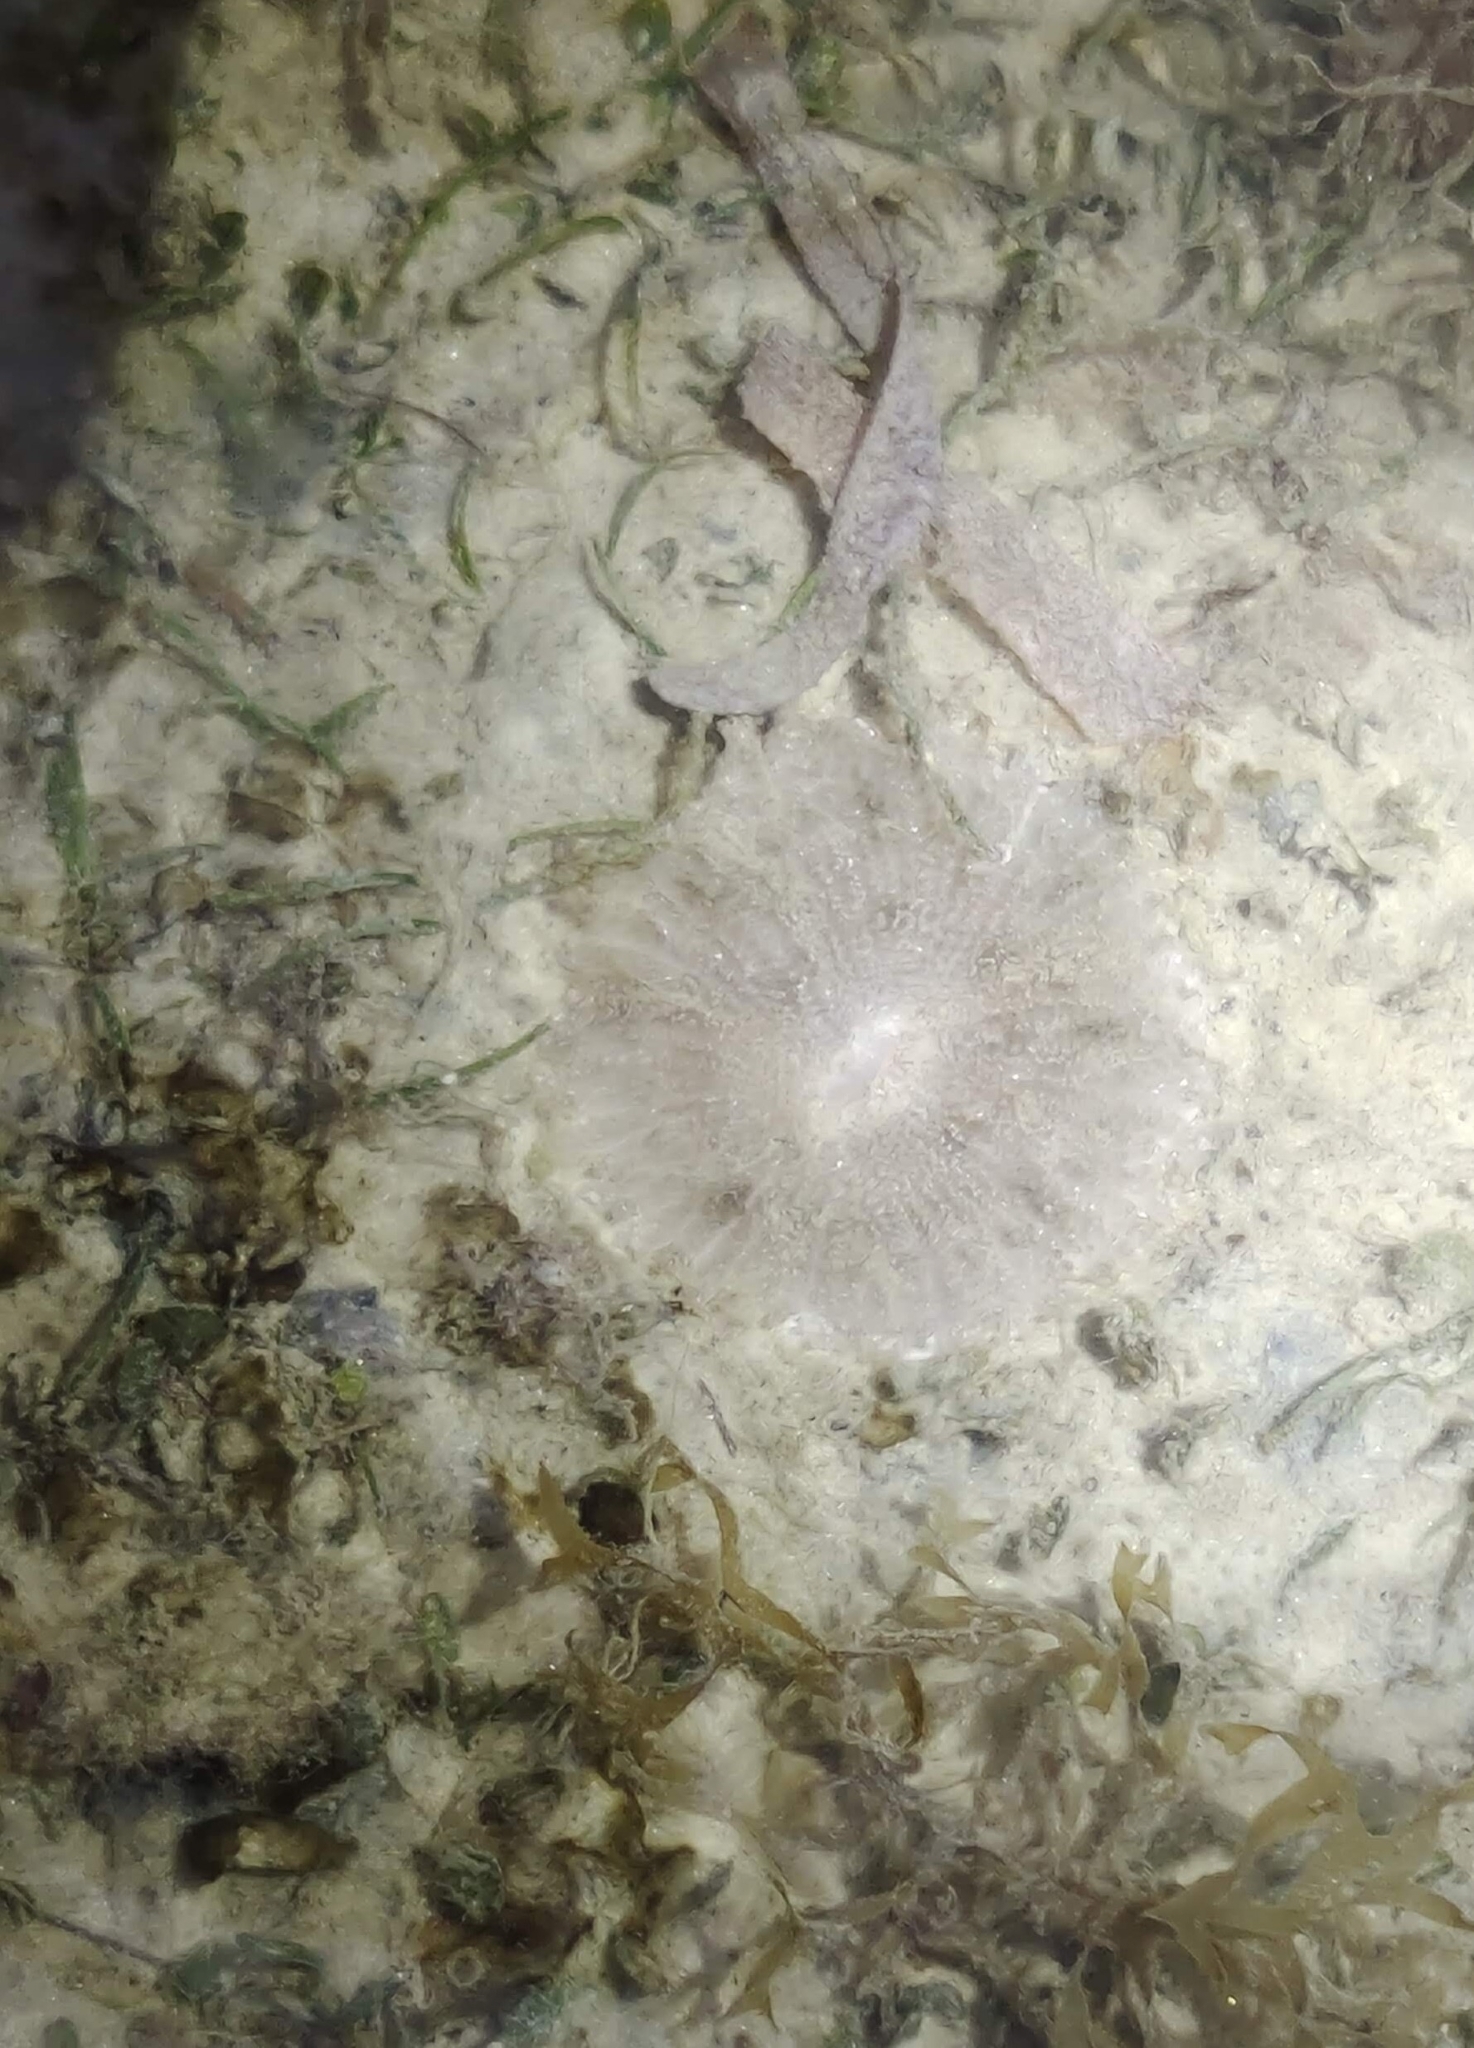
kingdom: Animalia
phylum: Cnidaria
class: Anthozoa
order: Actiniaria
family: Stichodactylidae
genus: Stichodactyla
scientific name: Stichodactyla haddoni
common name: Haddon's sea anemone
